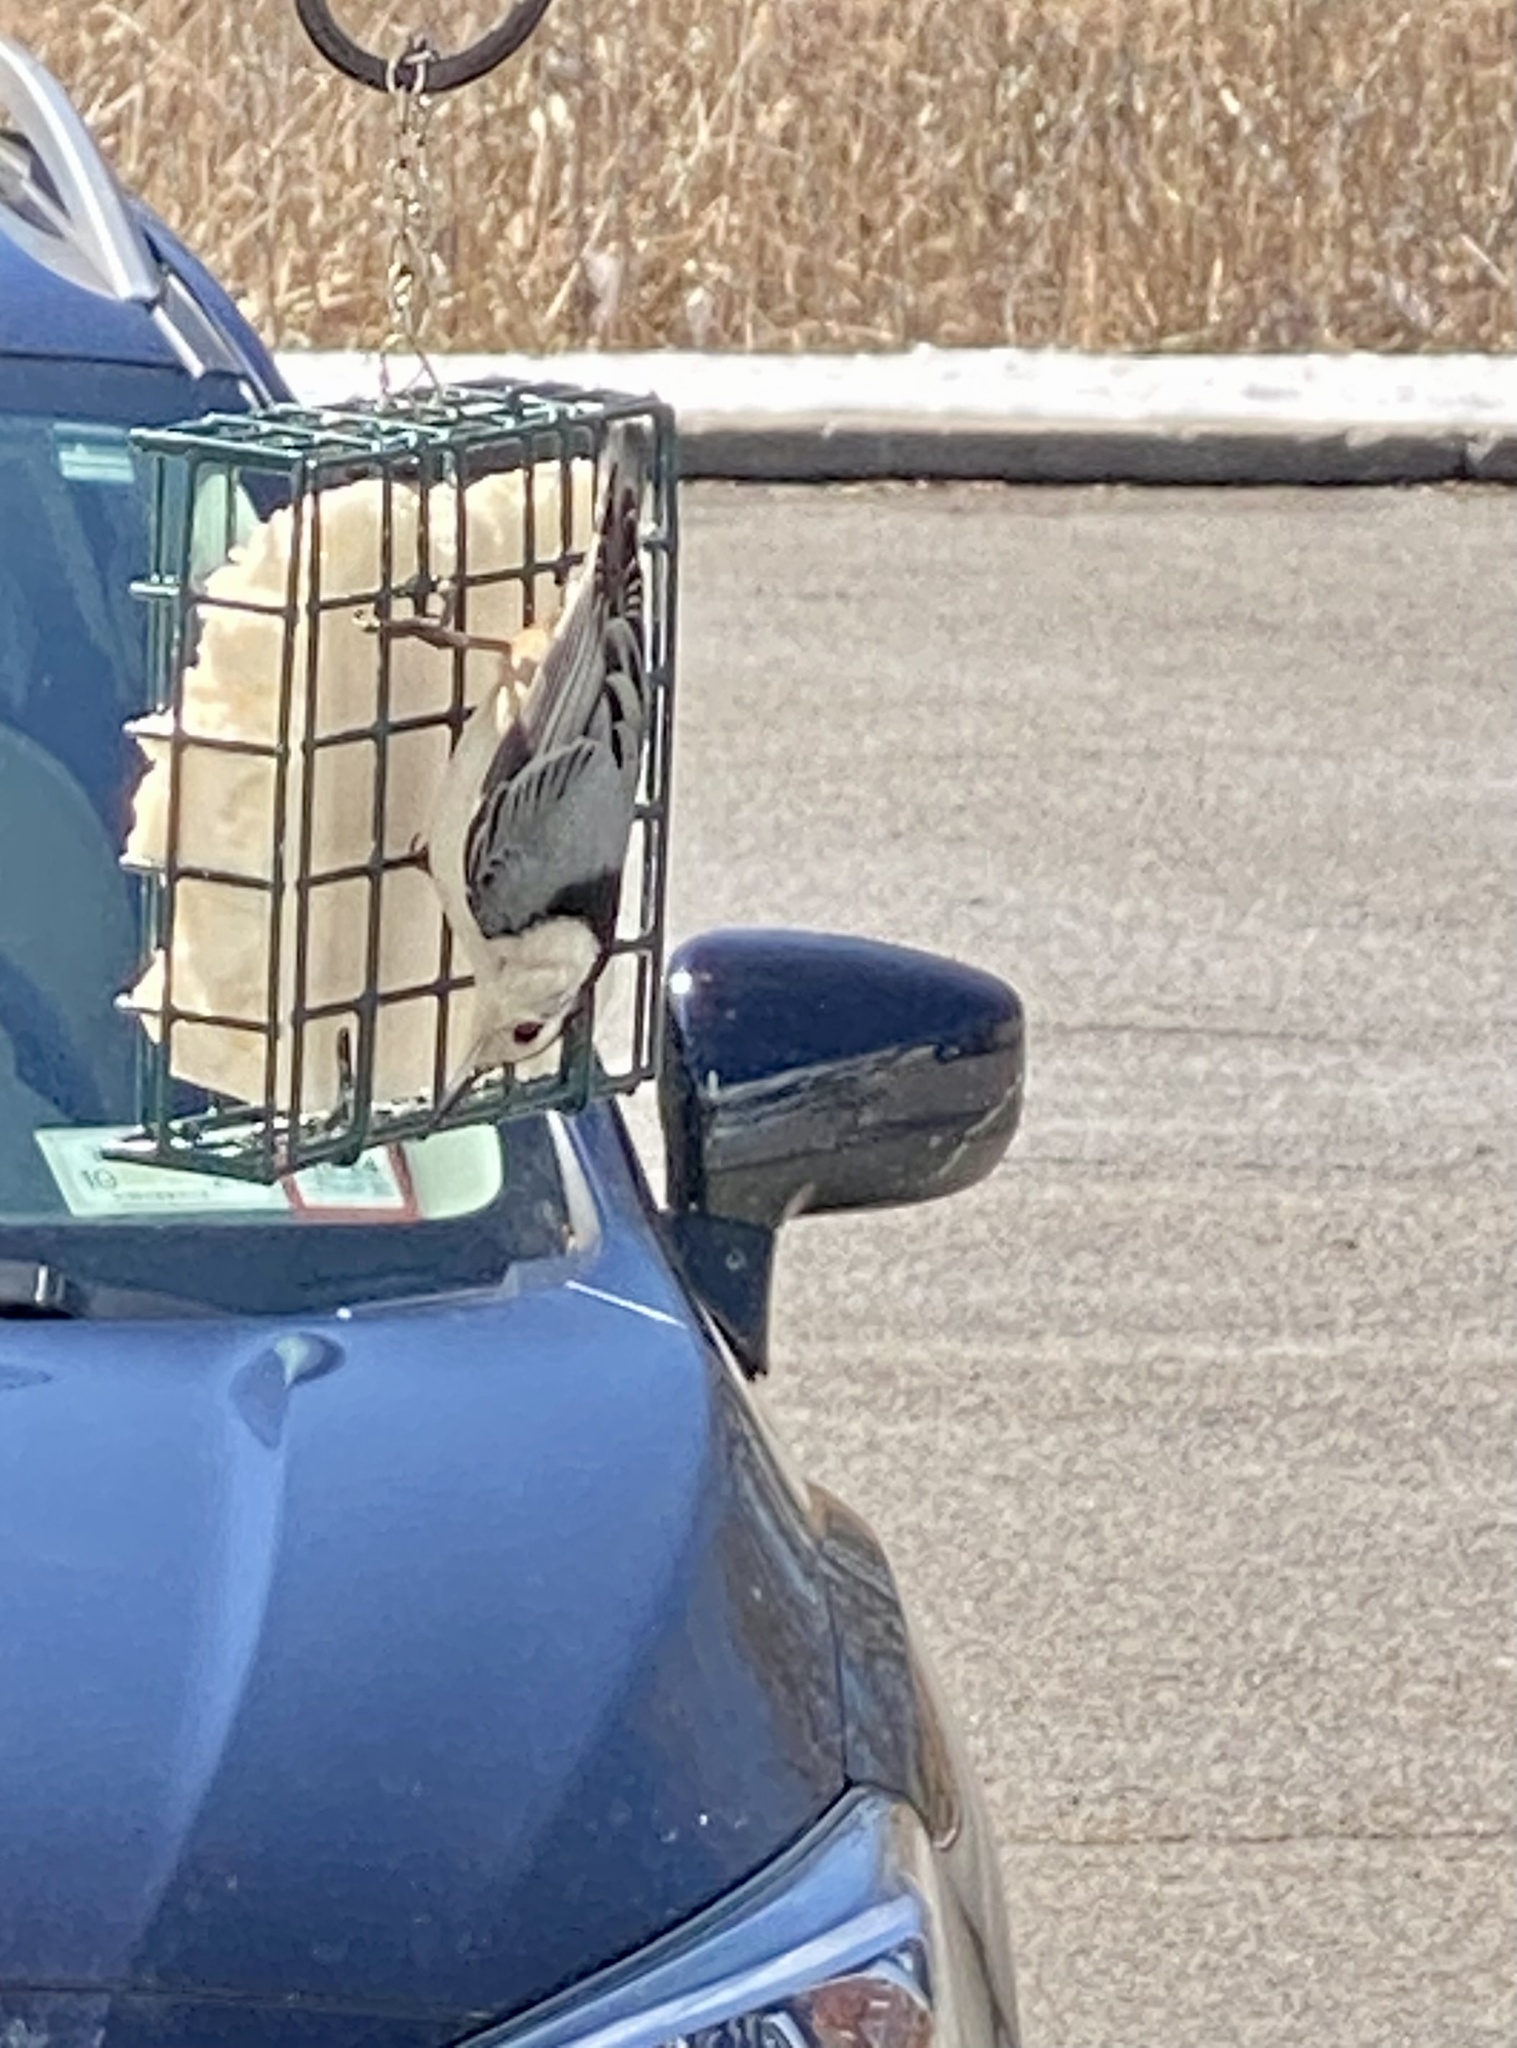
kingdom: Animalia
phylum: Chordata
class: Aves
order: Passeriformes
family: Sittidae
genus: Sitta
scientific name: Sitta carolinensis
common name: White-breasted nuthatch
